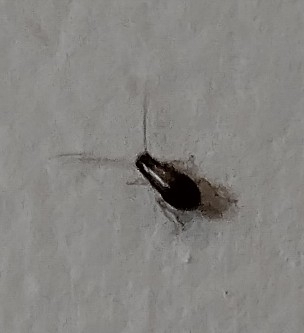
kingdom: Animalia
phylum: Arthropoda
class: Insecta
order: Blattodea
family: Ectobiidae
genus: Blattella
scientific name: Blattella germanica
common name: German cockroach
